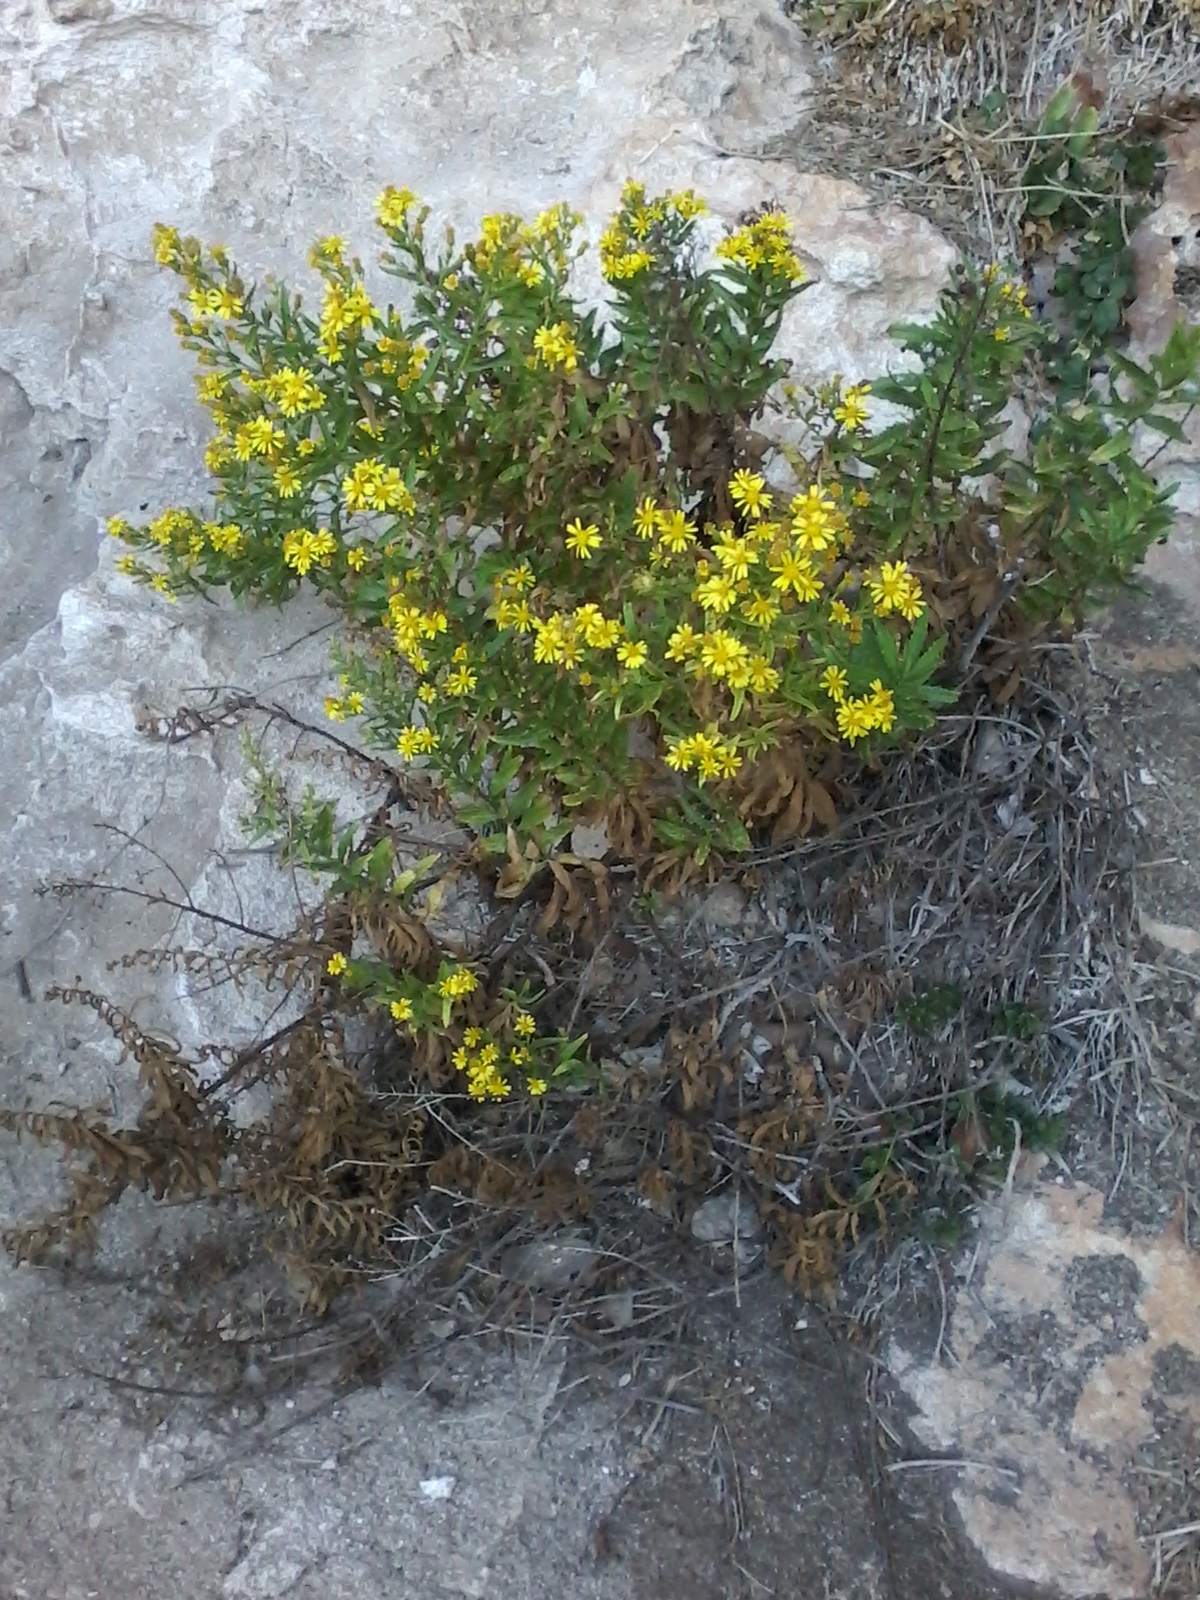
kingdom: Plantae
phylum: Tracheophyta
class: Magnoliopsida
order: Asterales
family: Asteraceae
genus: Dittrichia
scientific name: Dittrichia viscosa
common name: Woody fleabane
